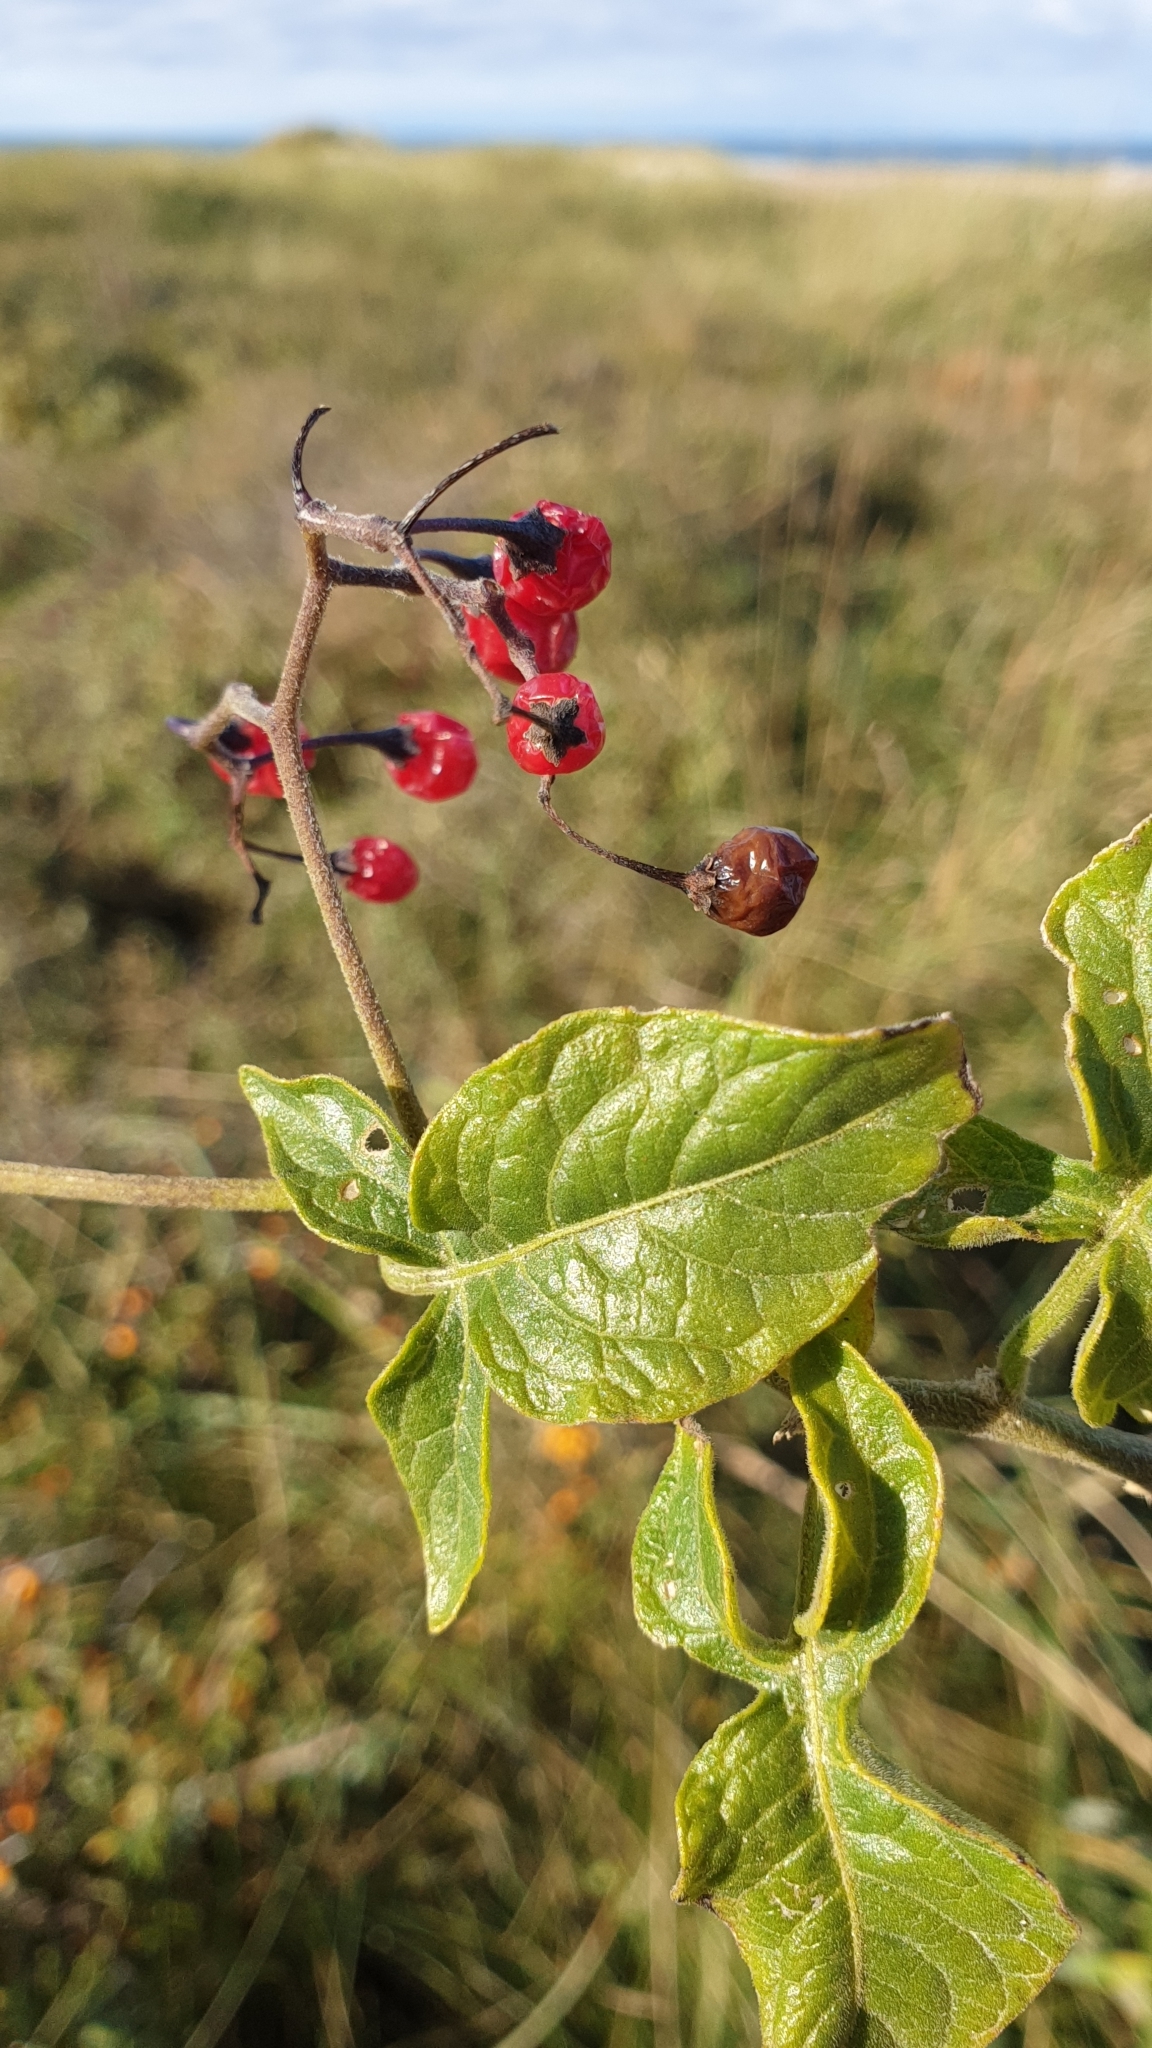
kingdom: Plantae
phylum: Tracheophyta
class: Magnoliopsida
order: Solanales
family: Solanaceae
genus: Solanum
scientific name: Solanum dulcamara
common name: Climbing nightshade
